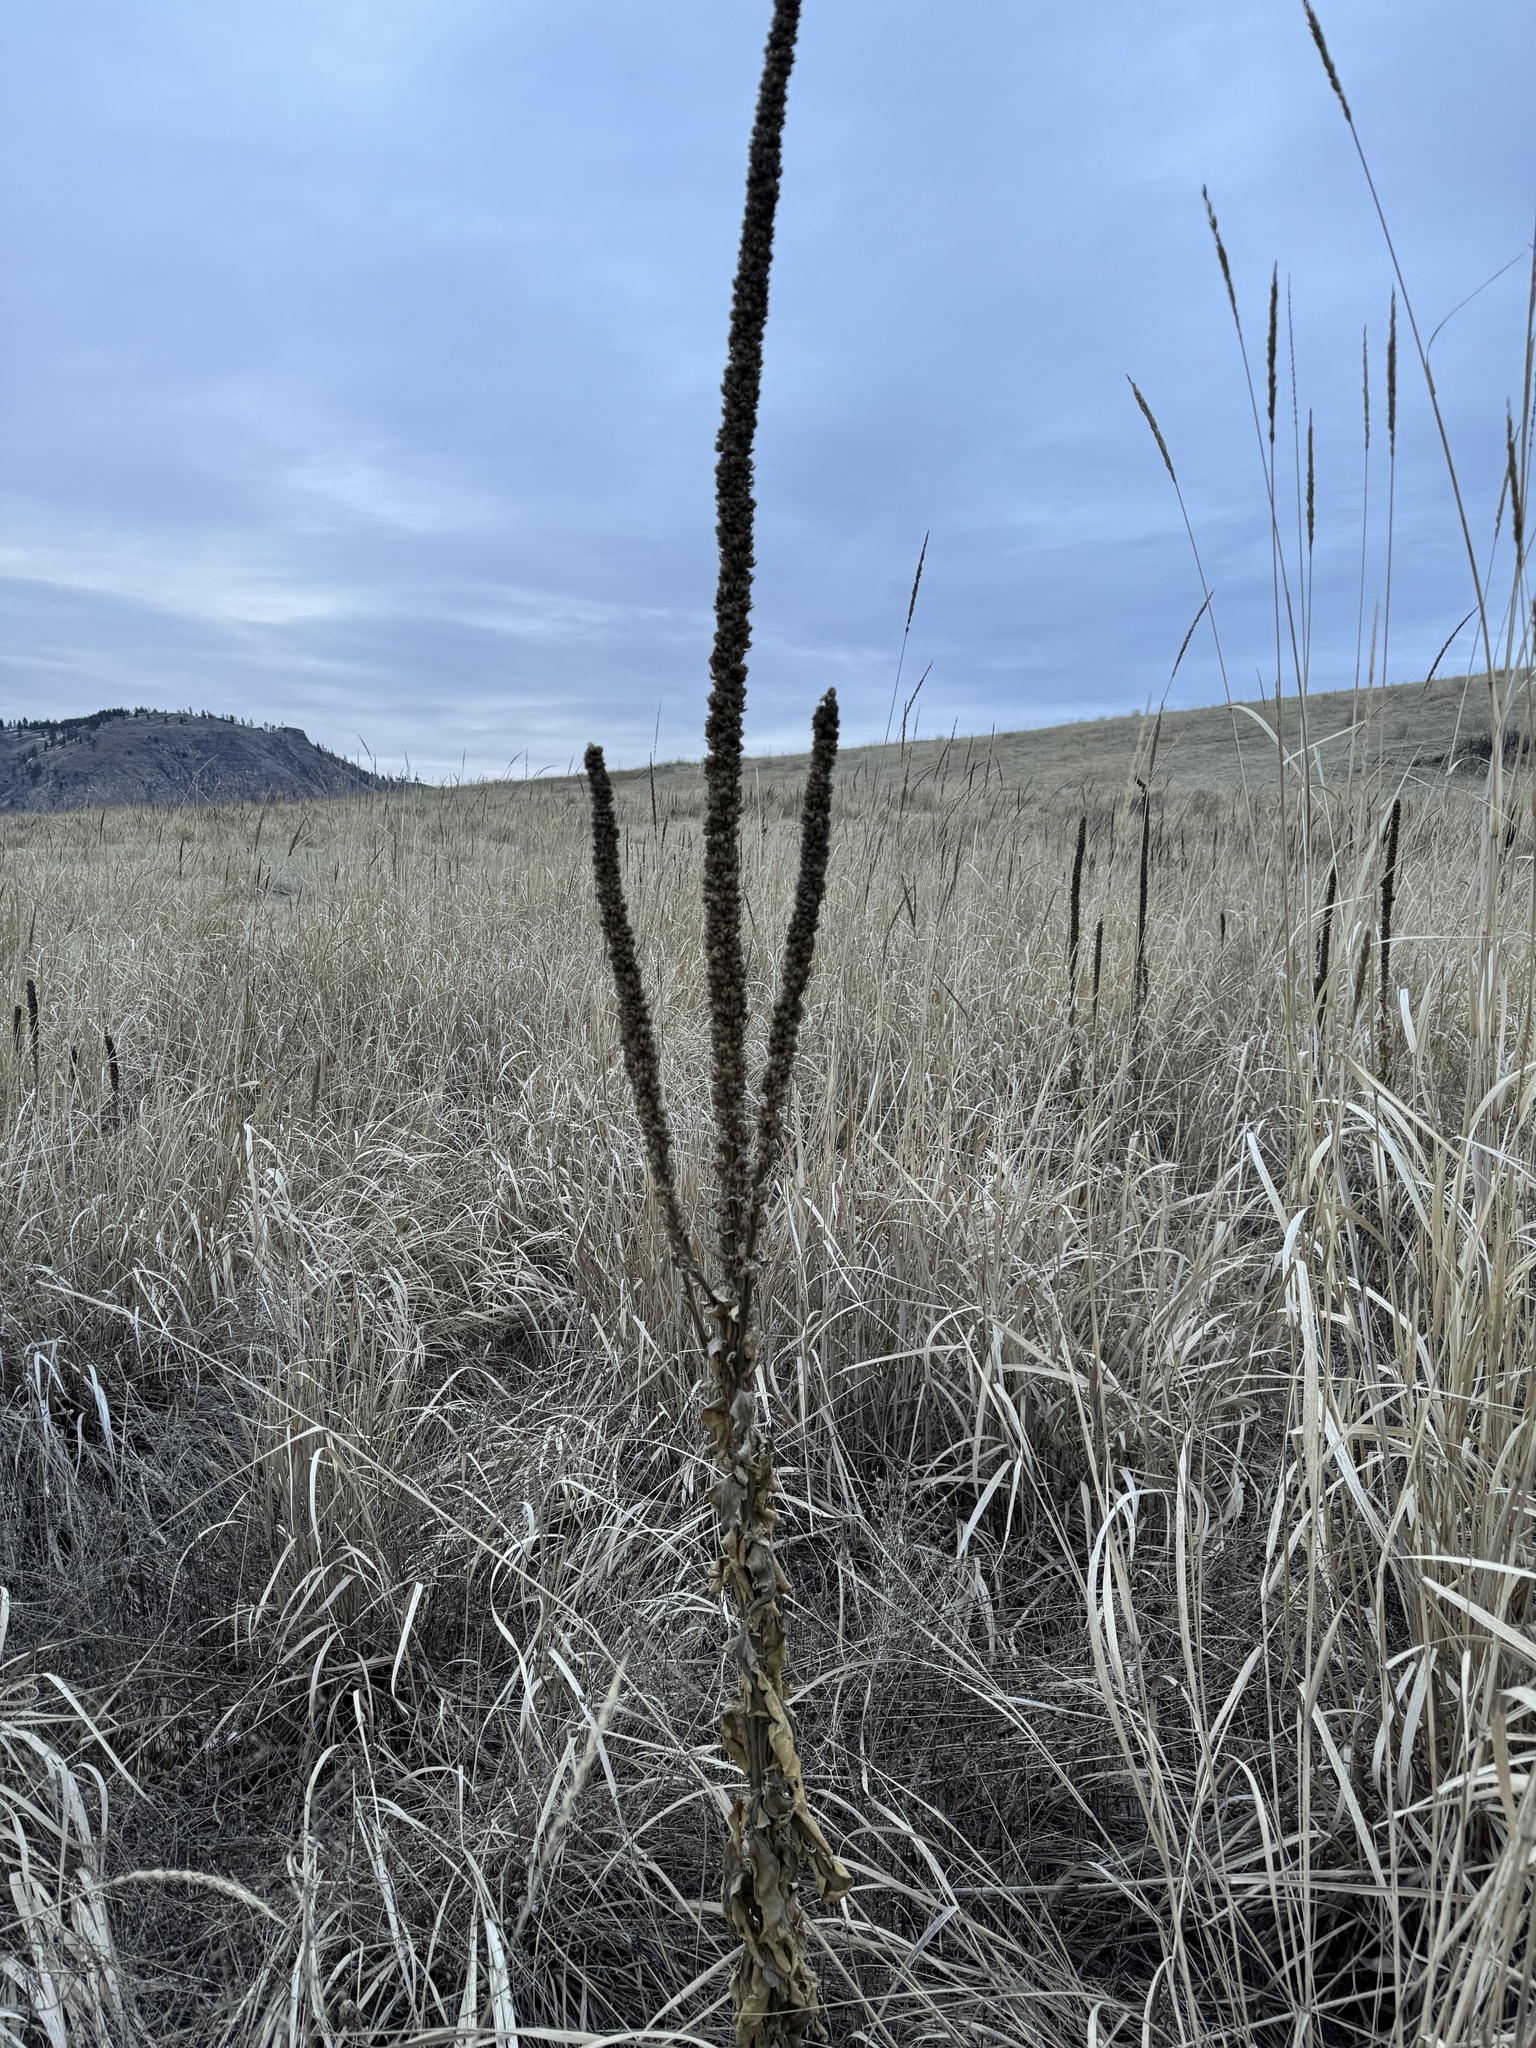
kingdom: Plantae
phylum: Tracheophyta
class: Magnoliopsida
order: Lamiales
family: Scrophulariaceae
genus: Verbascum
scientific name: Verbascum thapsus
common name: Common mullein
